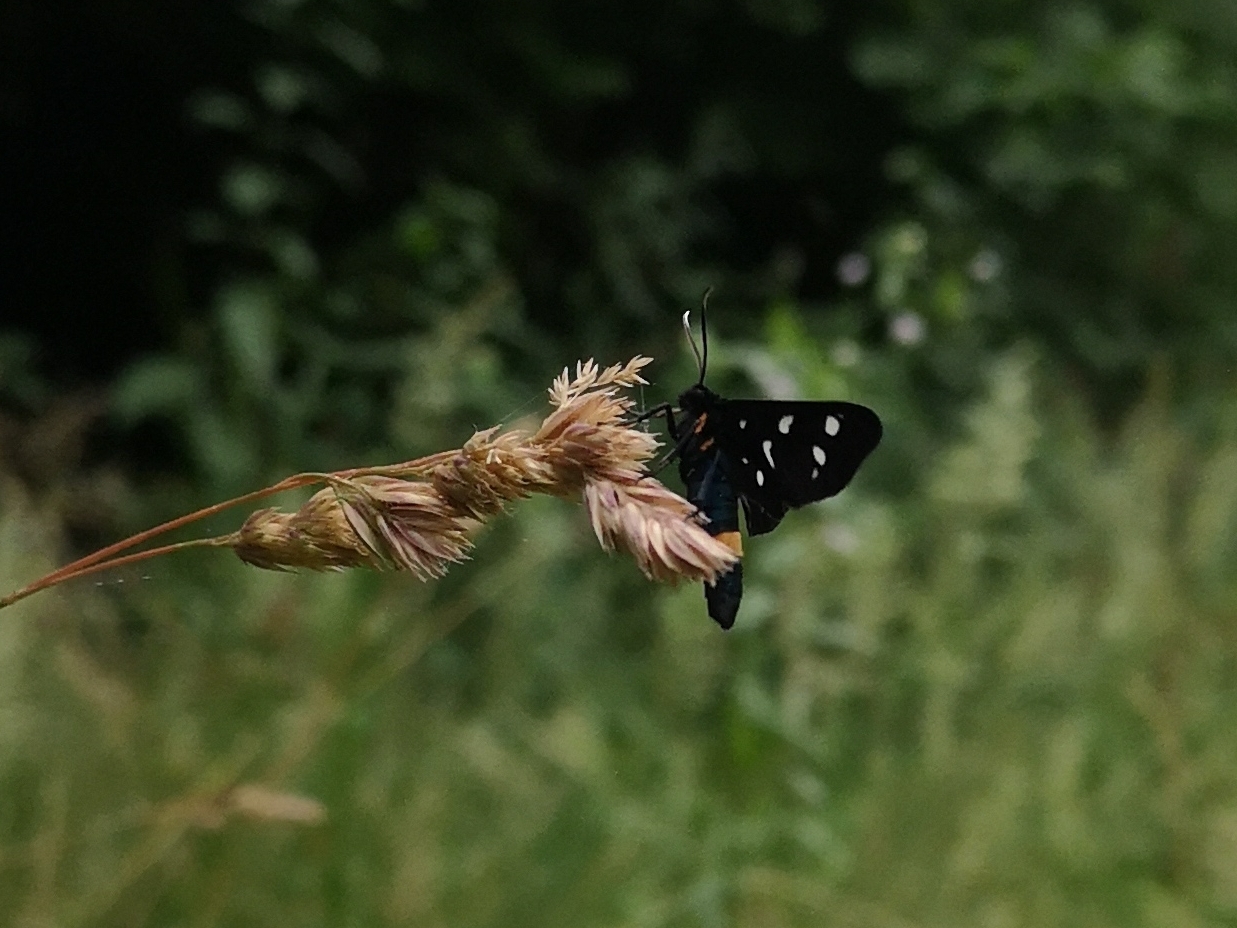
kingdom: Animalia
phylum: Arthropoda
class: Insecta
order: Lepidoptera
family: Erebidae
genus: Amata
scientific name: Amata phegea
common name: Nine-spotted
